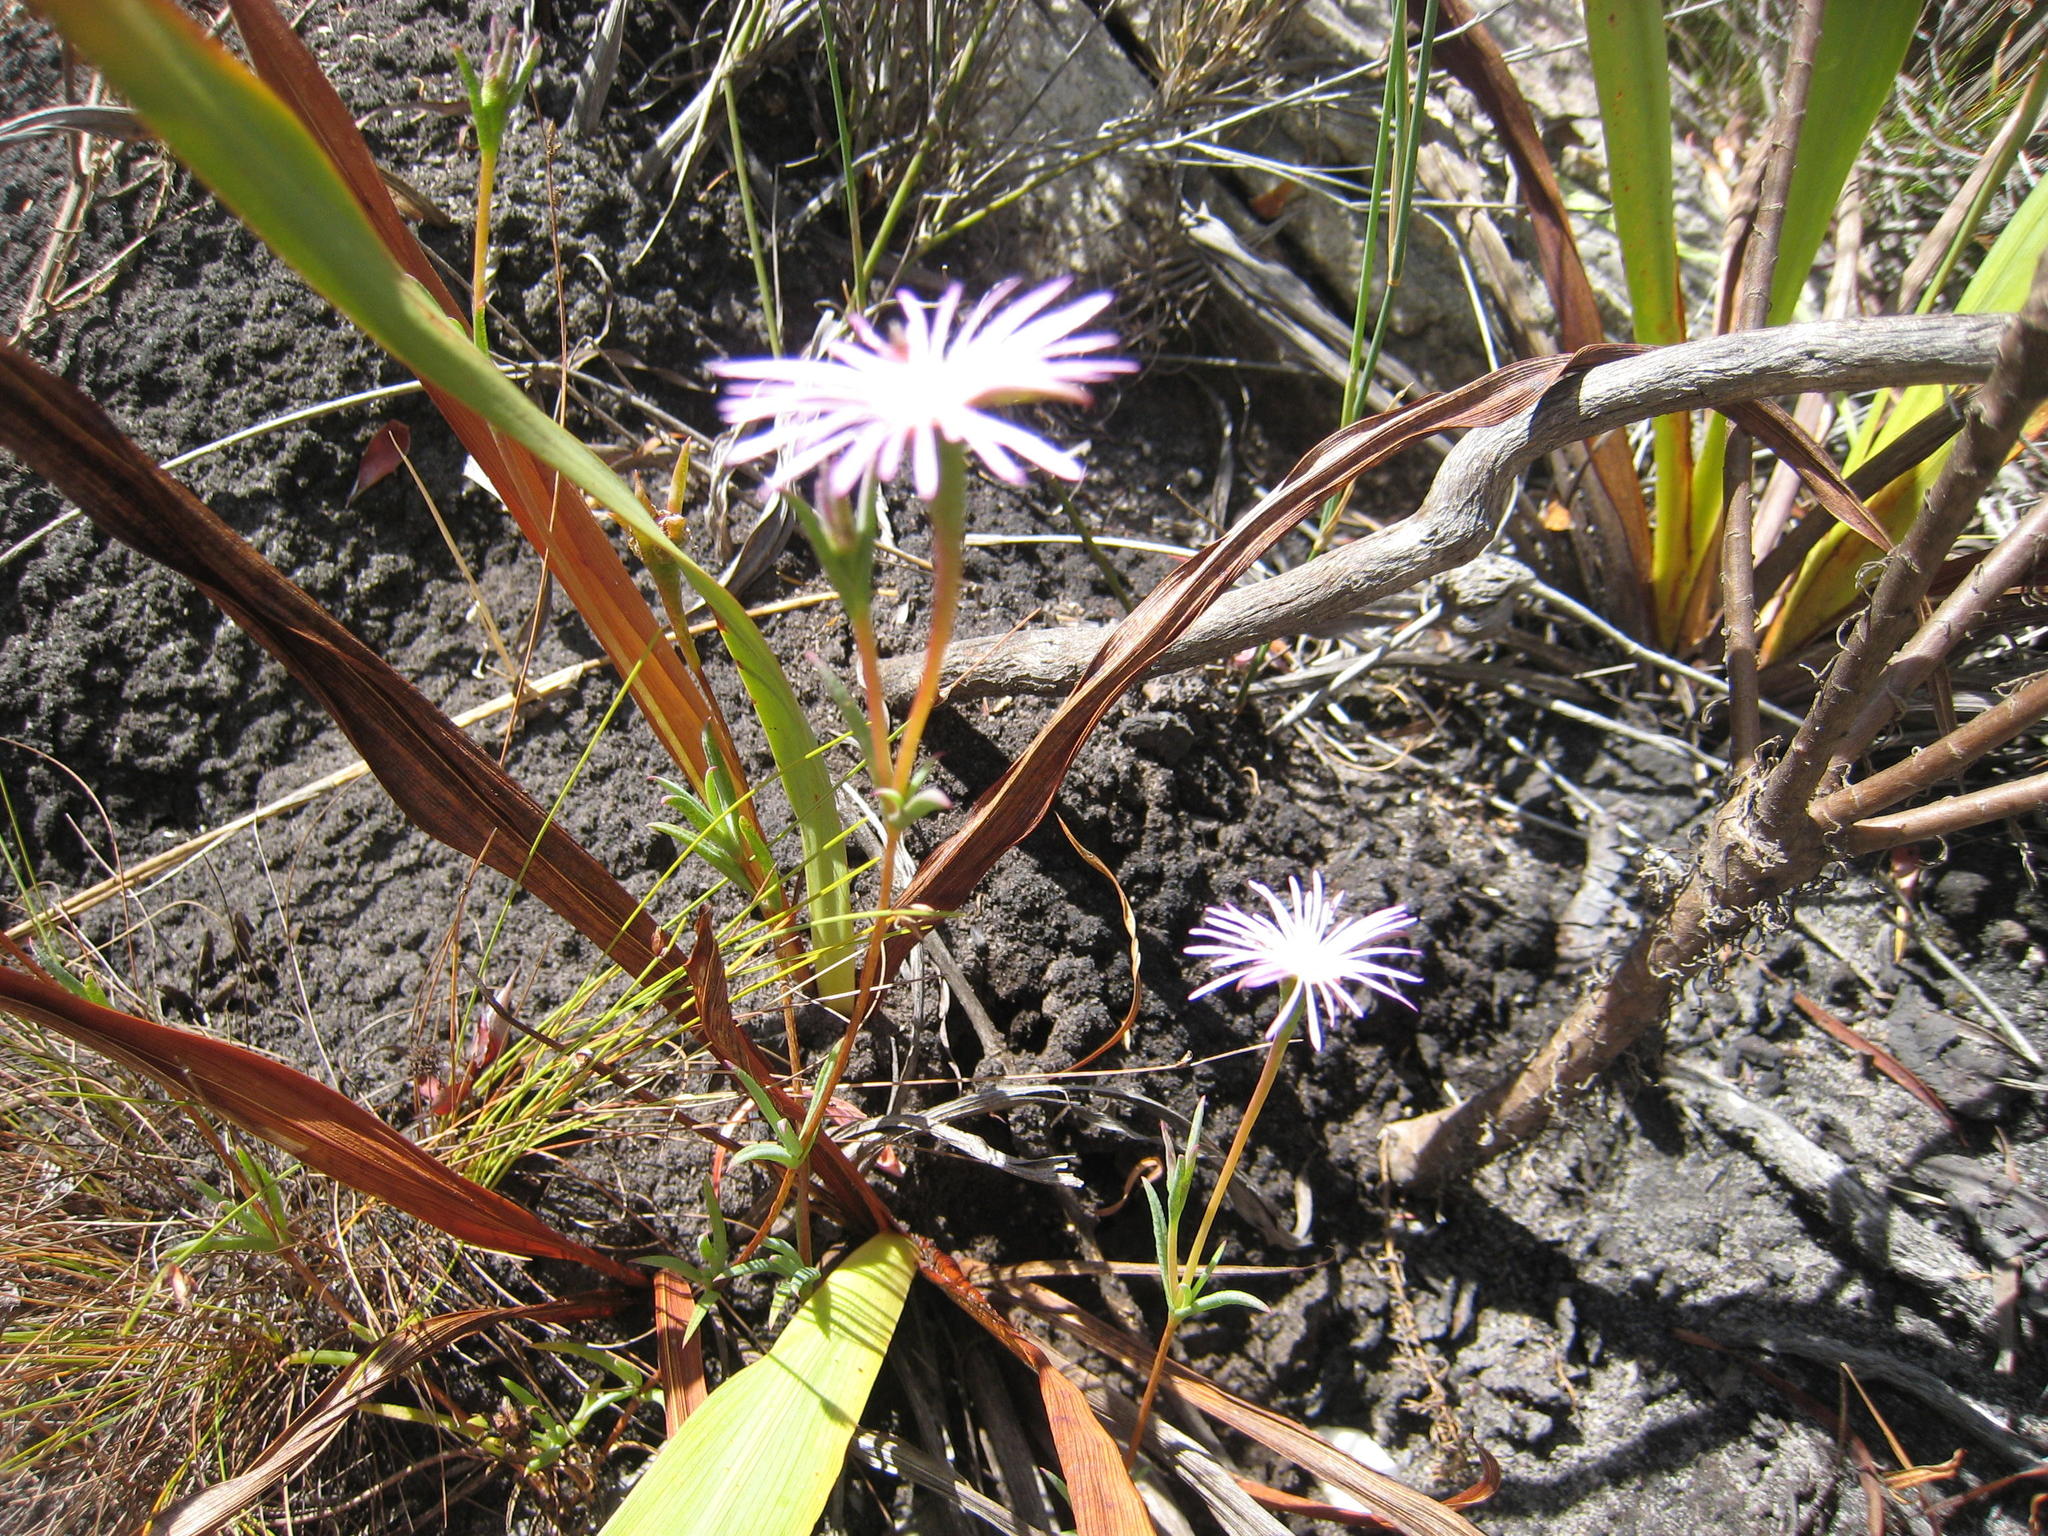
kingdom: Plantae
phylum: Tracheophyta
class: Magnoliopsida
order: Caryophyllales
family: Aizoaceae
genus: Erepsia
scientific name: Erepsia aspera
